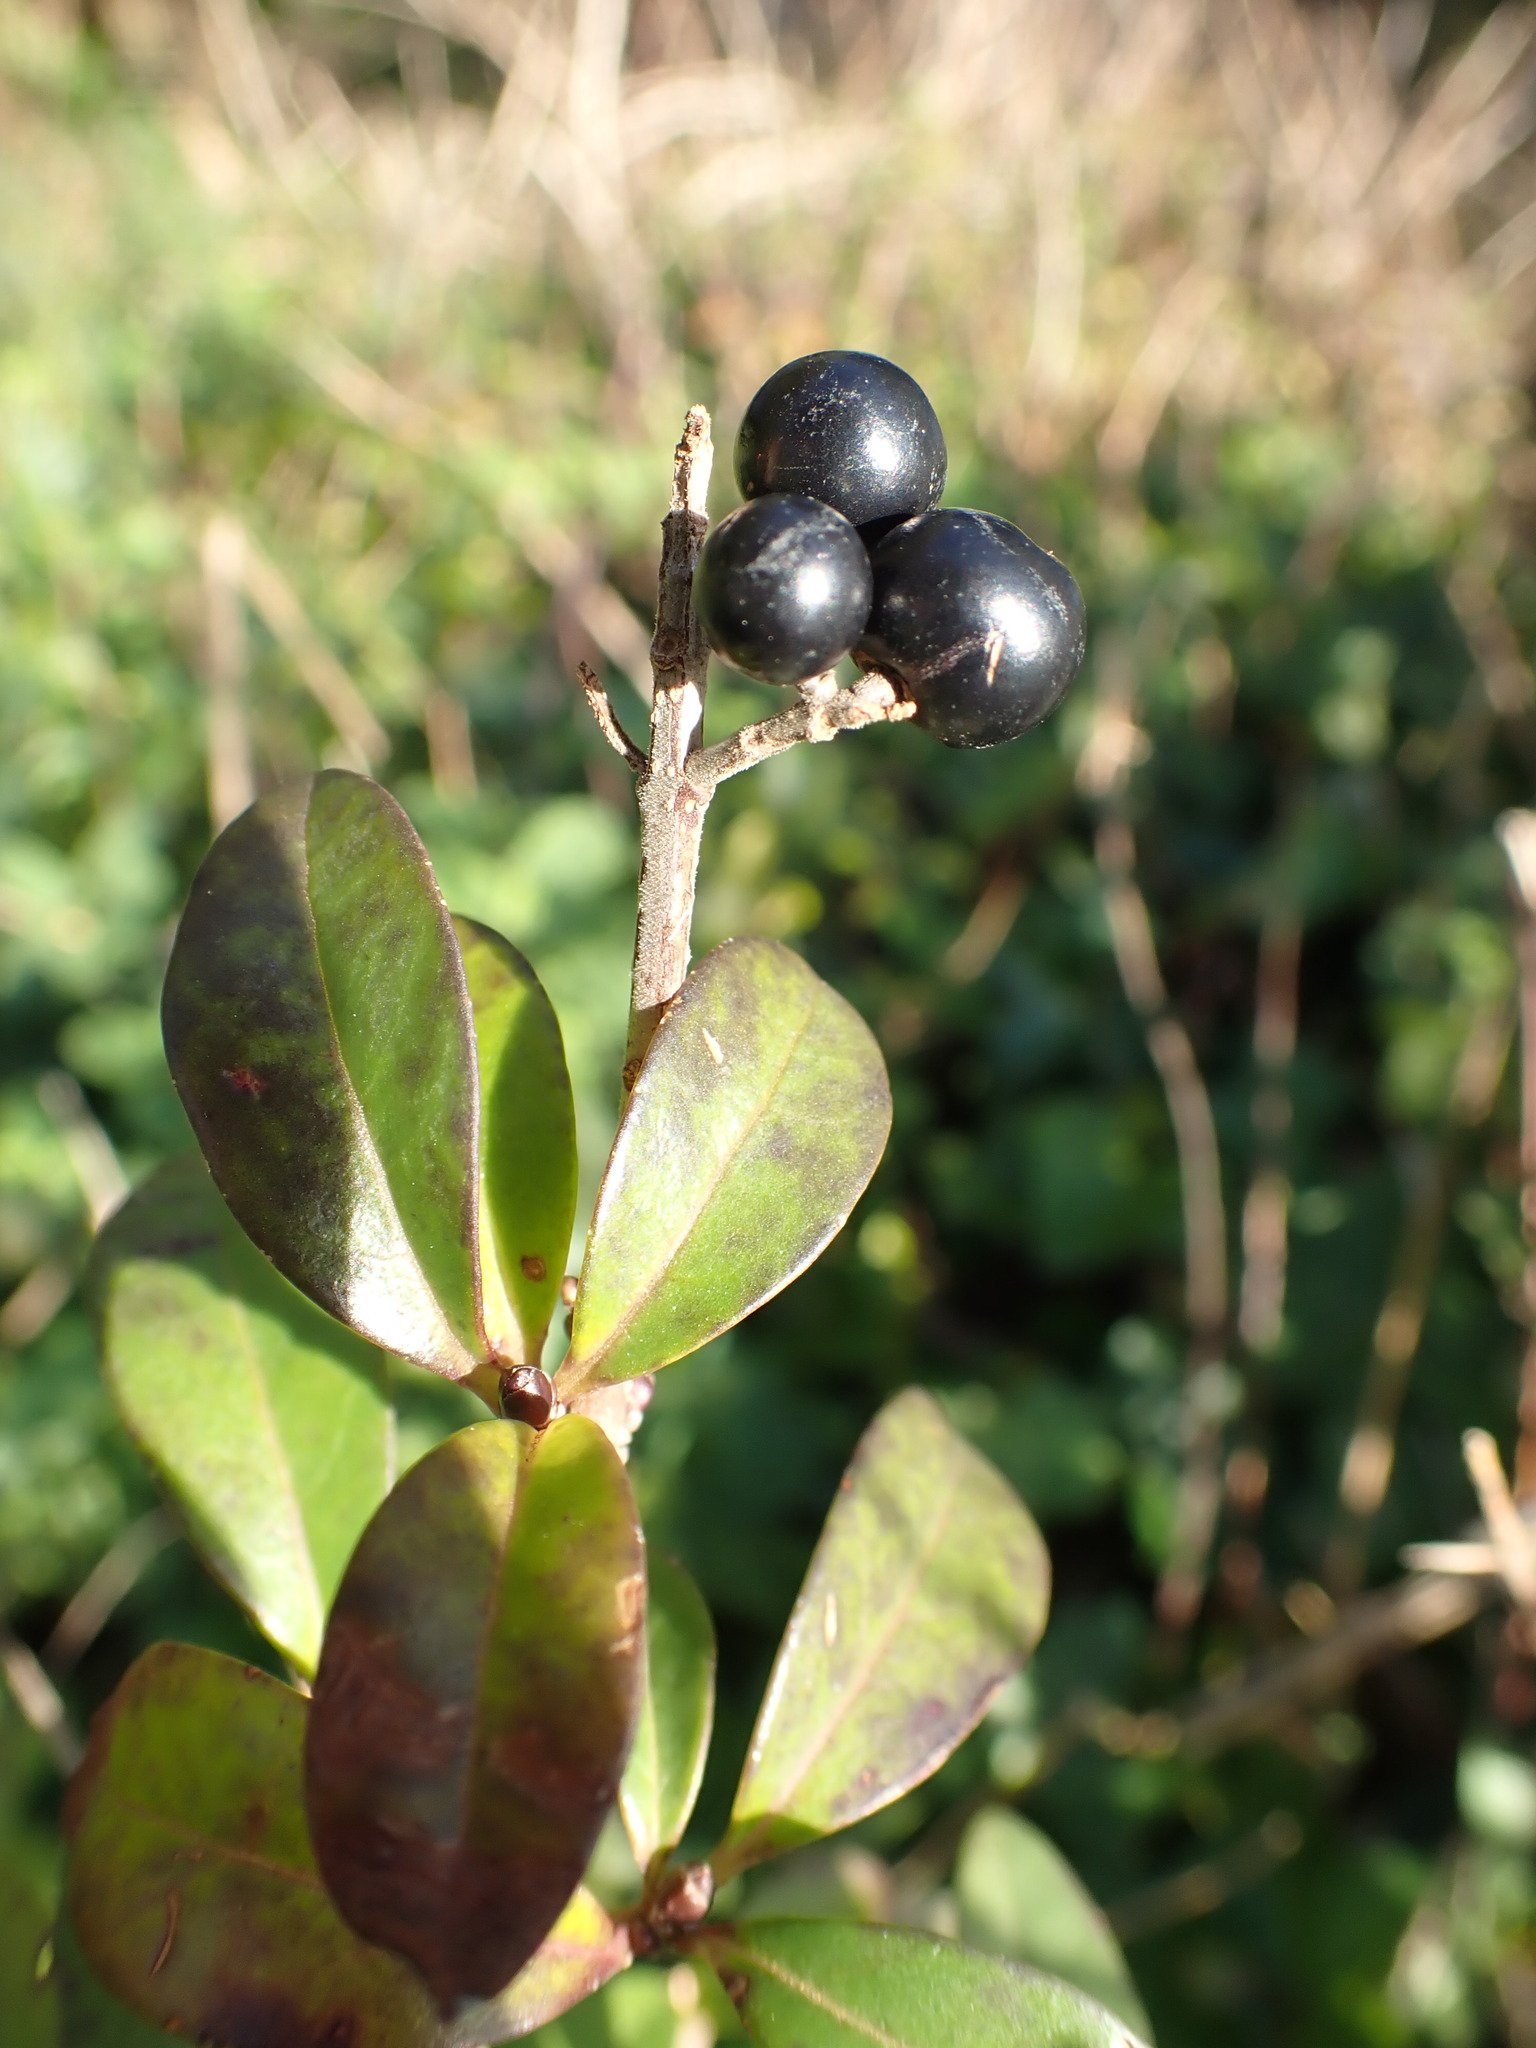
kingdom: Plantae
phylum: Tracheophyta
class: Magnoliopsida
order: Lamiales
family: Oleaceae
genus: Ligustrum
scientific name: Ligustrum vulgare
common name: Wild privet
